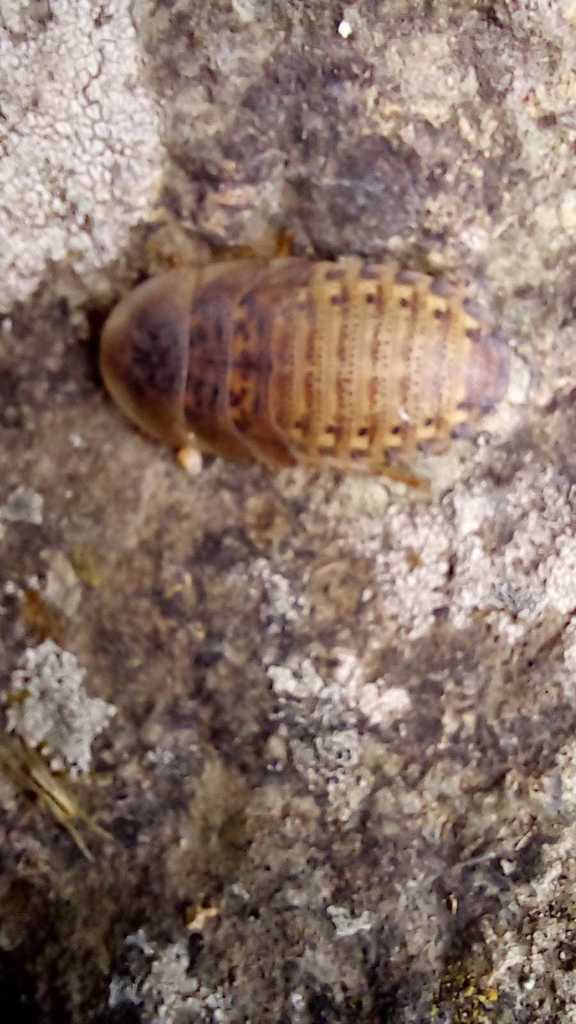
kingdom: Animalia
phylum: Arthropoda
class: Insecta
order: Blattodea
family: Blaberidae
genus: Blaptica
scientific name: Blaptica dubia
